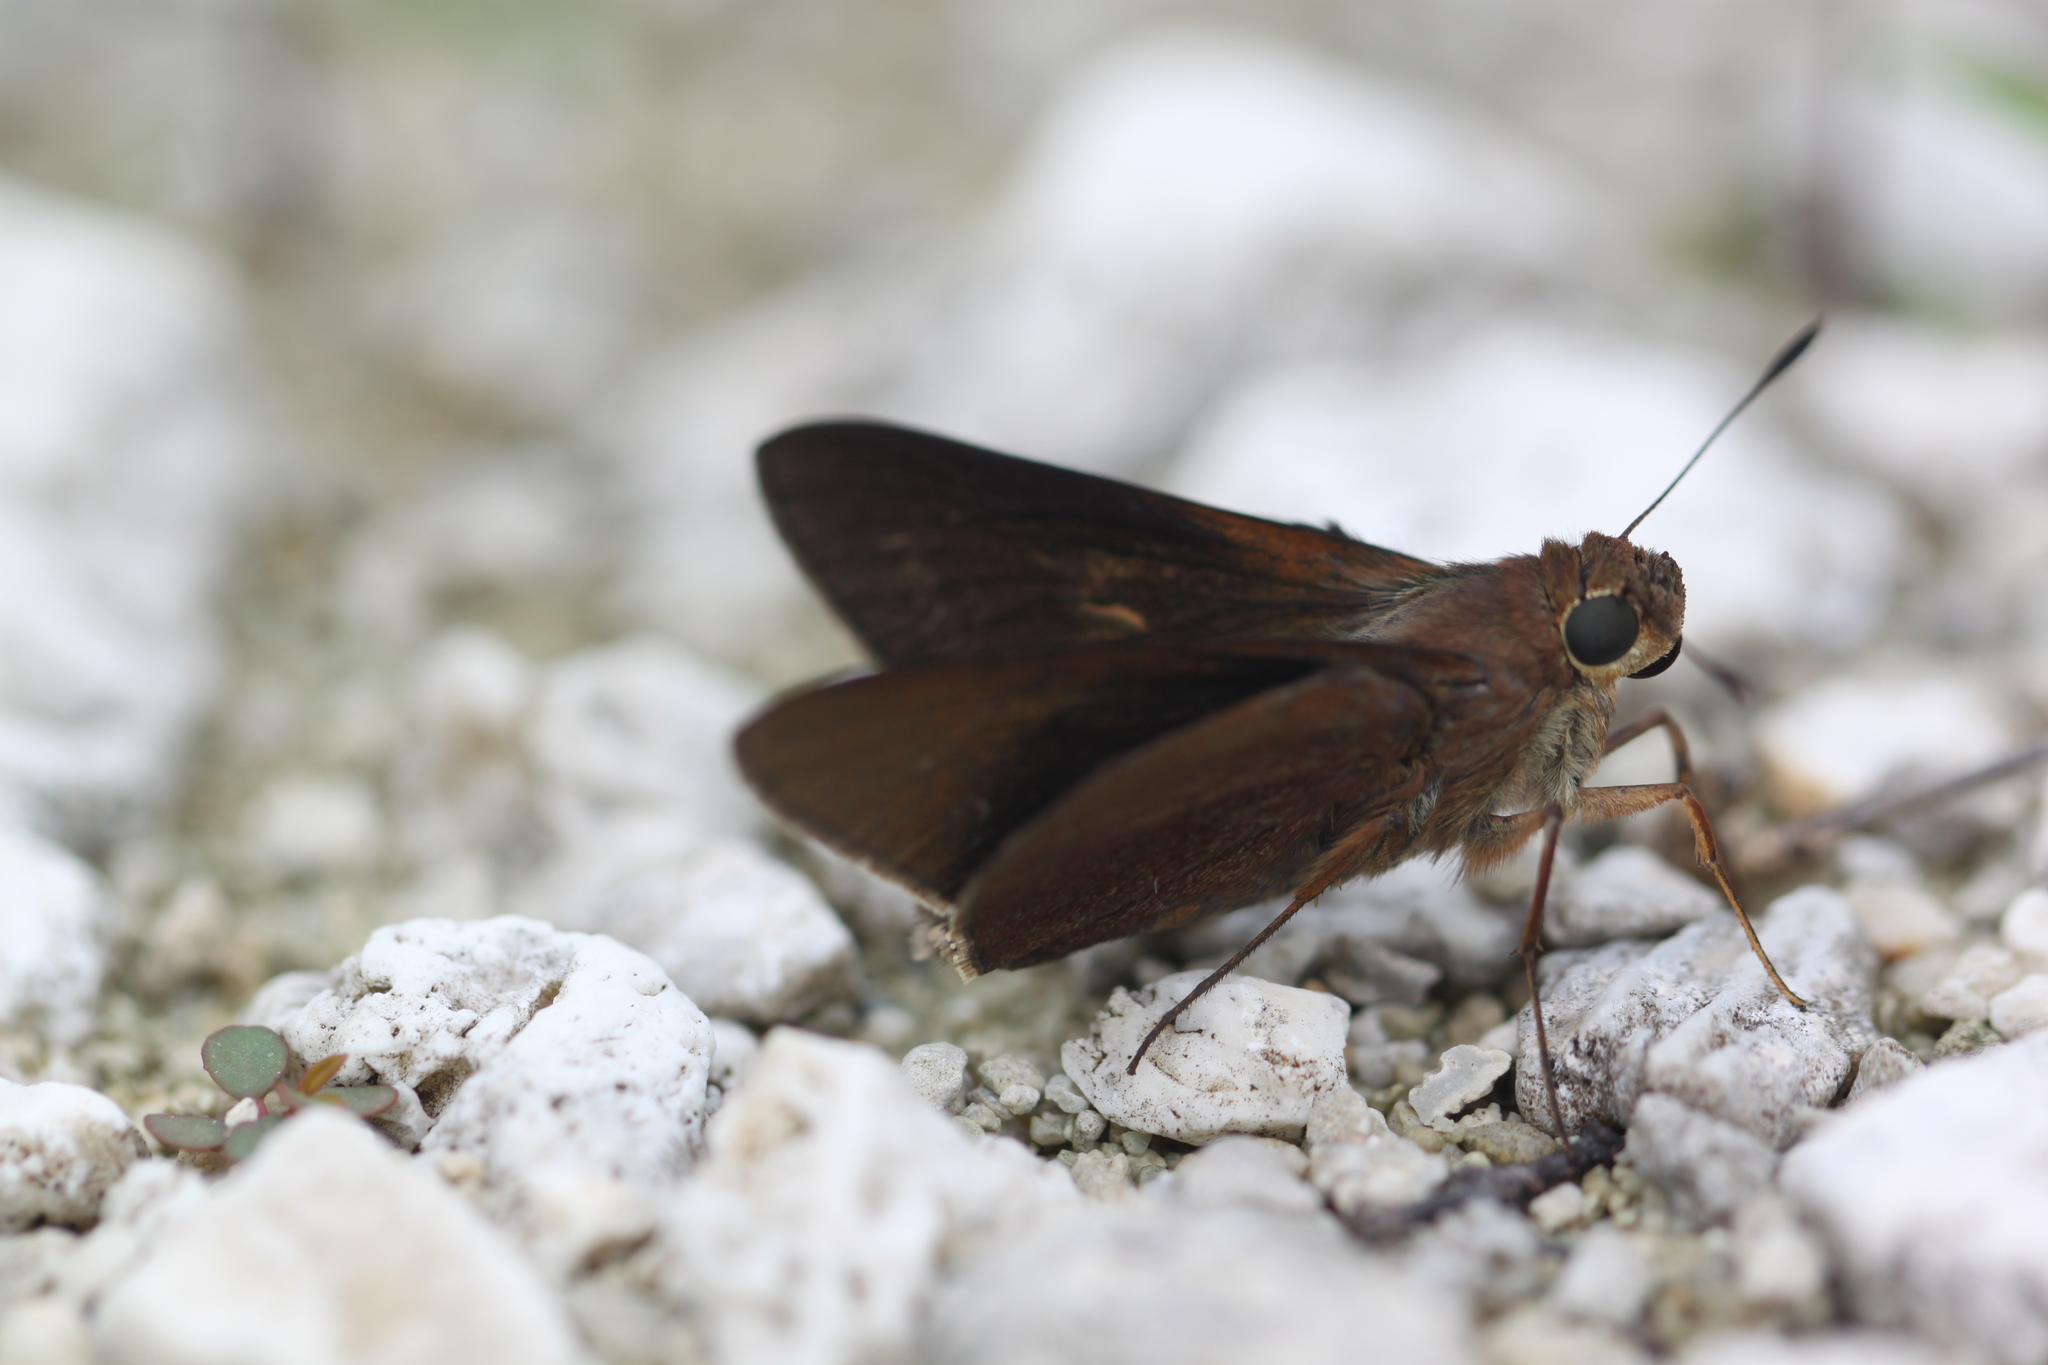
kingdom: Animalia
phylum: Arthropoda
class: Insecta
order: Lepidoptera
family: Hesperiidae
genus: Asbolis
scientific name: Asbolis capucinus
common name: Monk skipper
